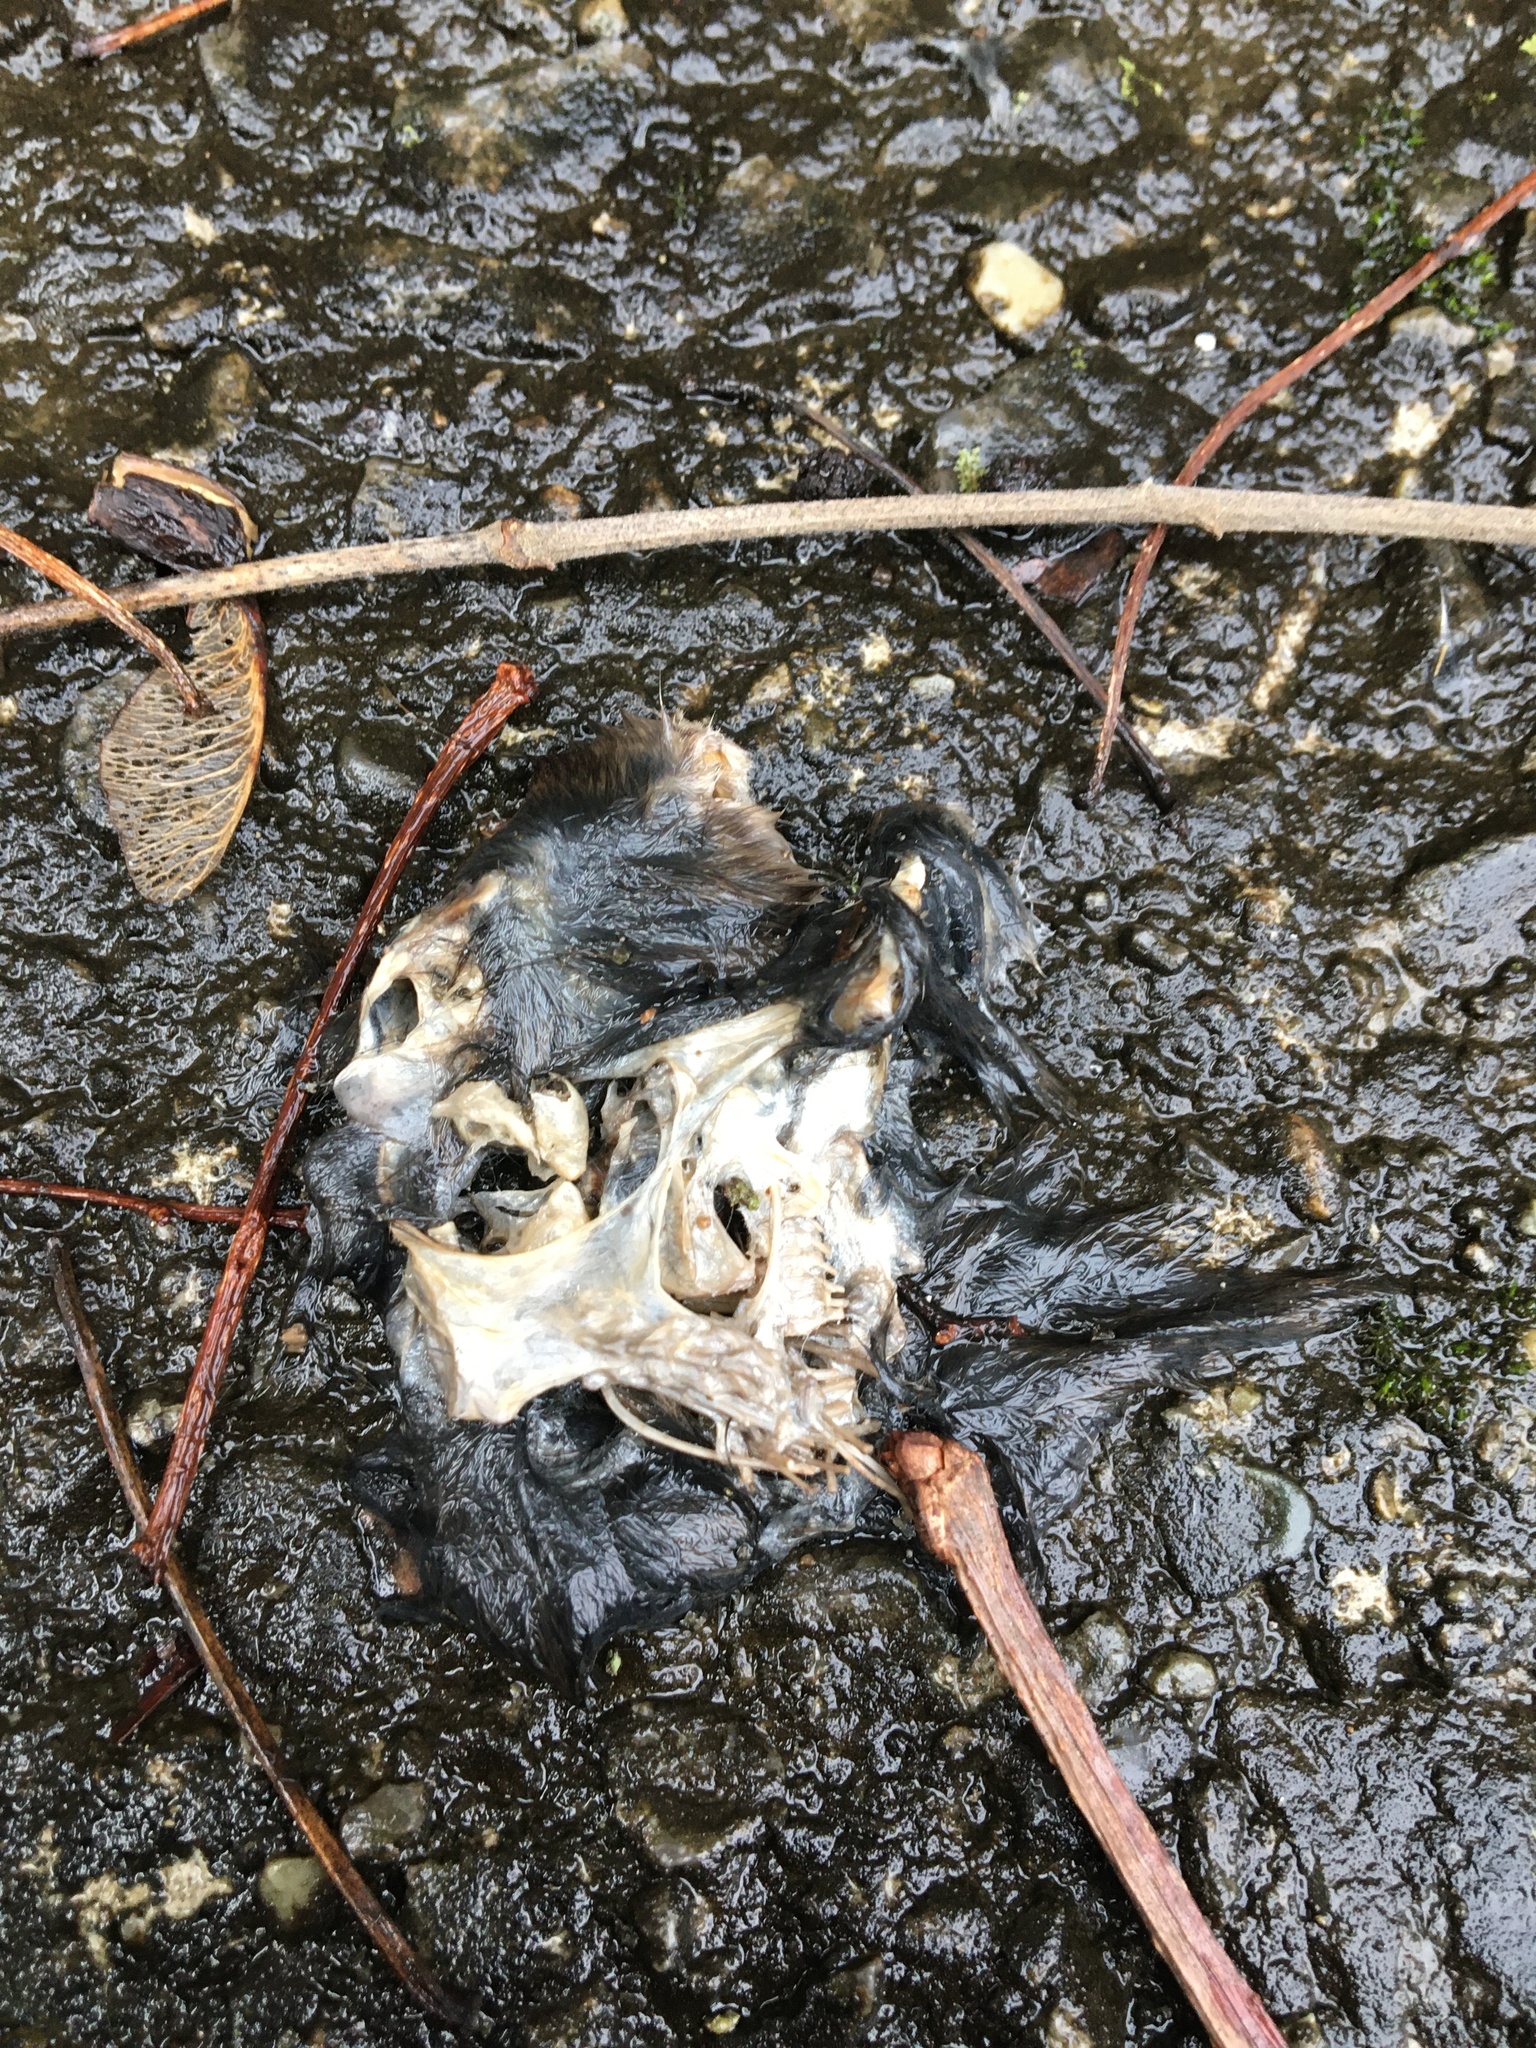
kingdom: Animalia
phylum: Chordata
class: Mammalia
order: Rodentia
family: Muridae
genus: Rattus
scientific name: Rattus norvegicus
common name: Brown rat
